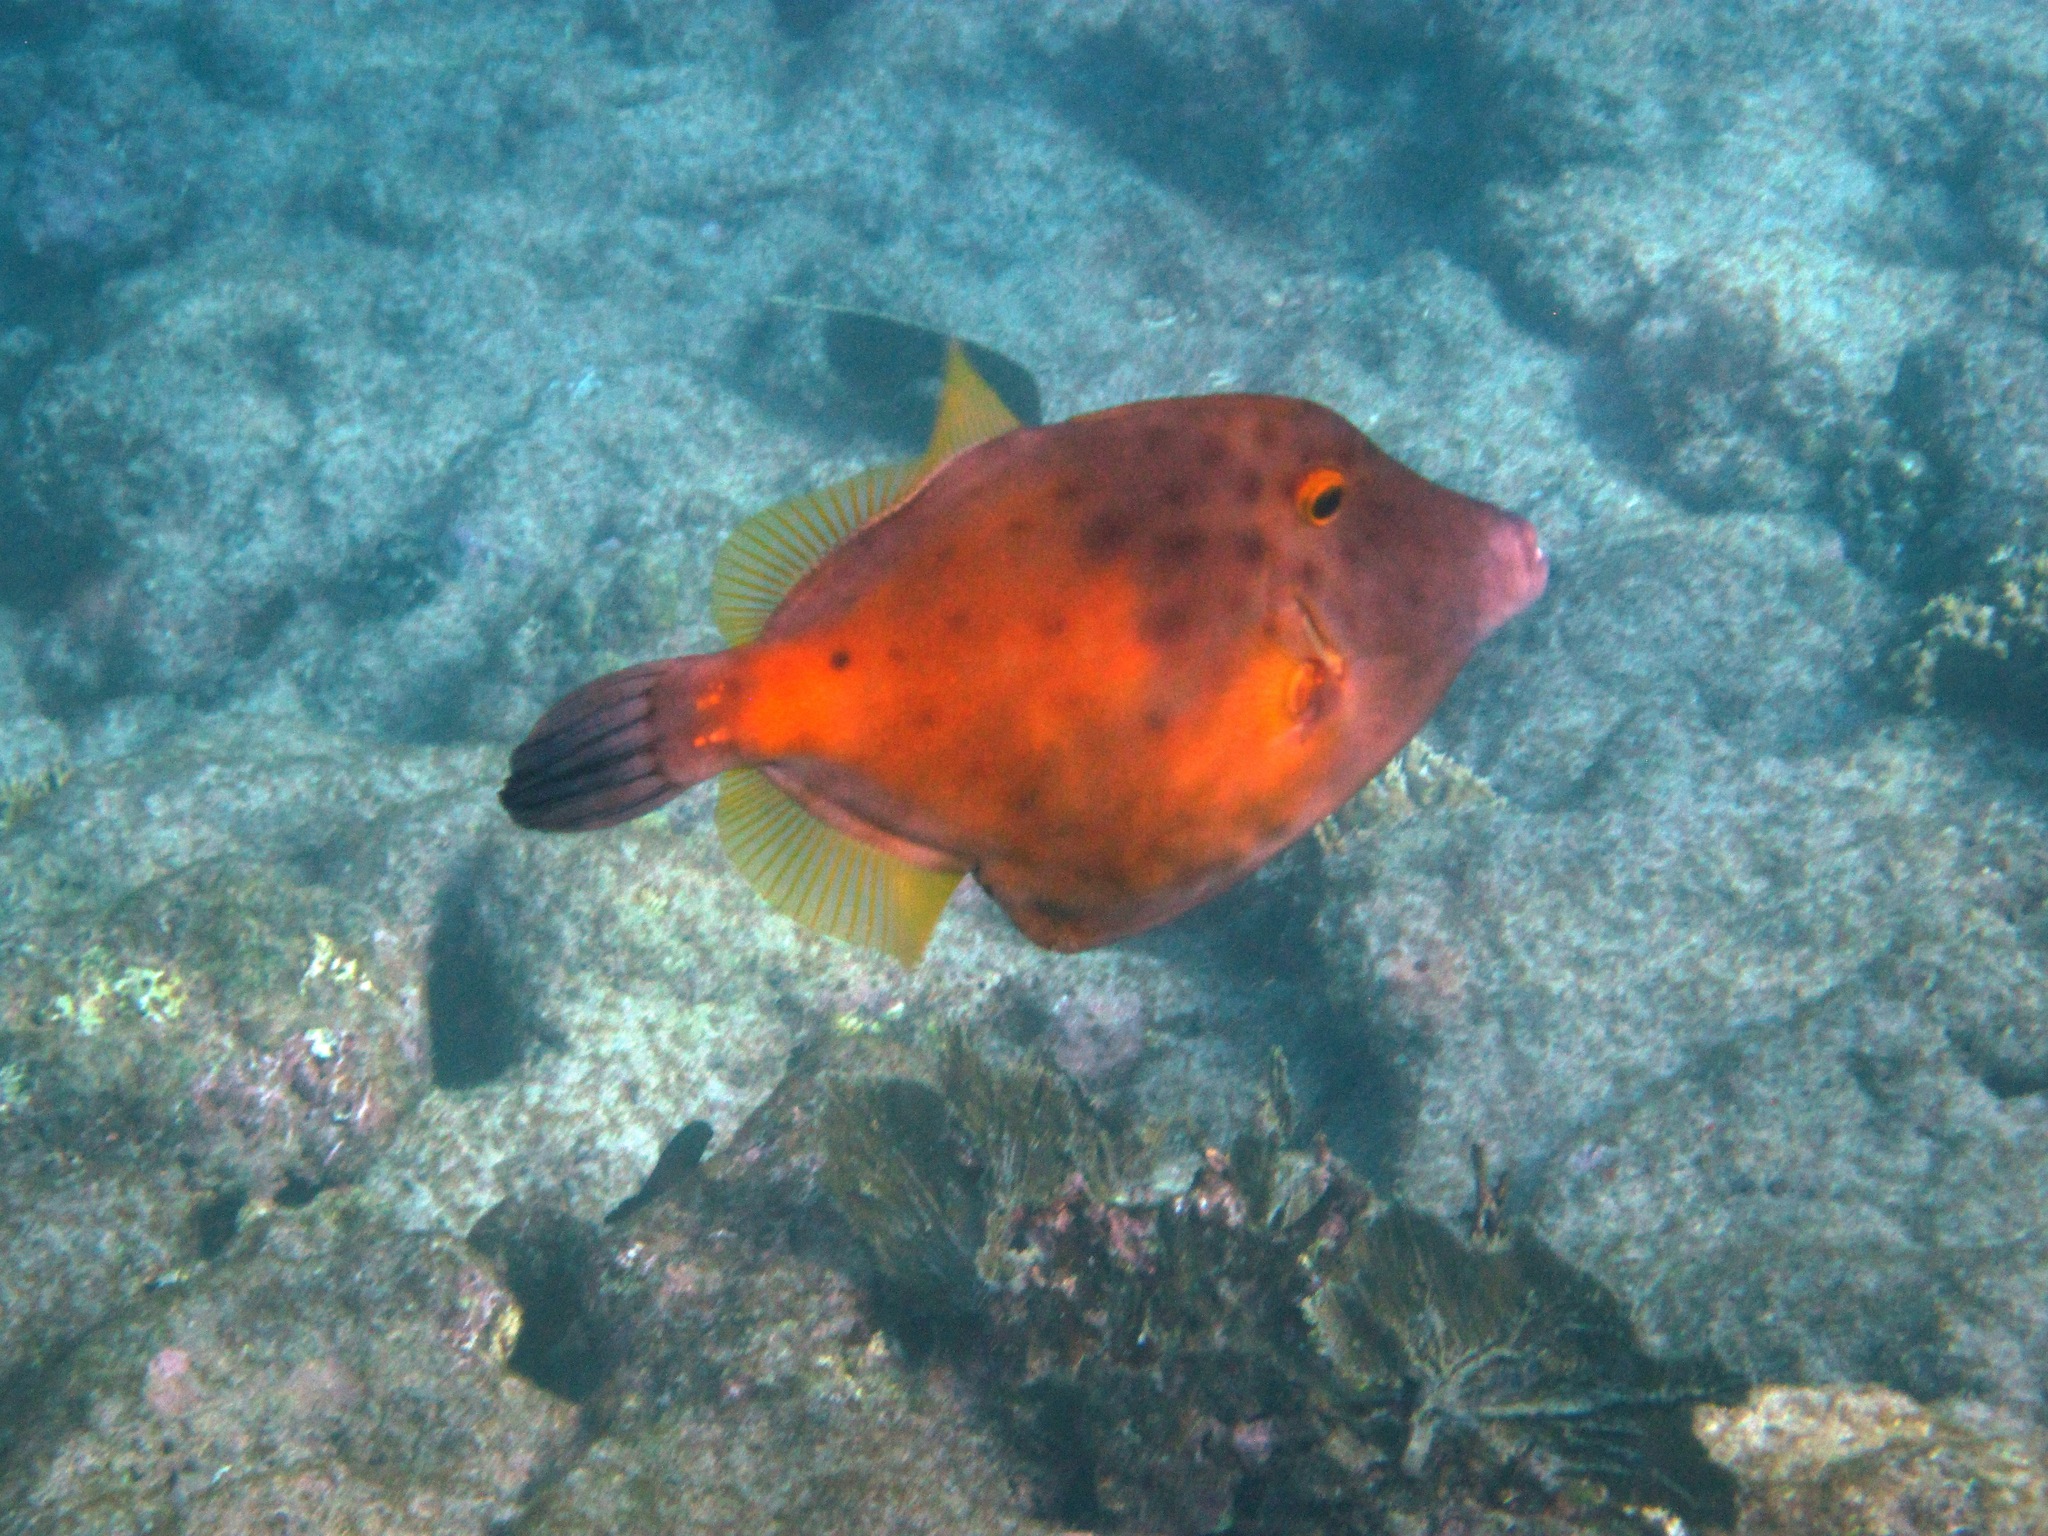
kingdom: Animalia
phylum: Chordata
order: Tetraodontiformes
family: Monacanthidae
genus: Cantherhines
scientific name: Cantherhines macrocerus
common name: Whitespotted filefish
